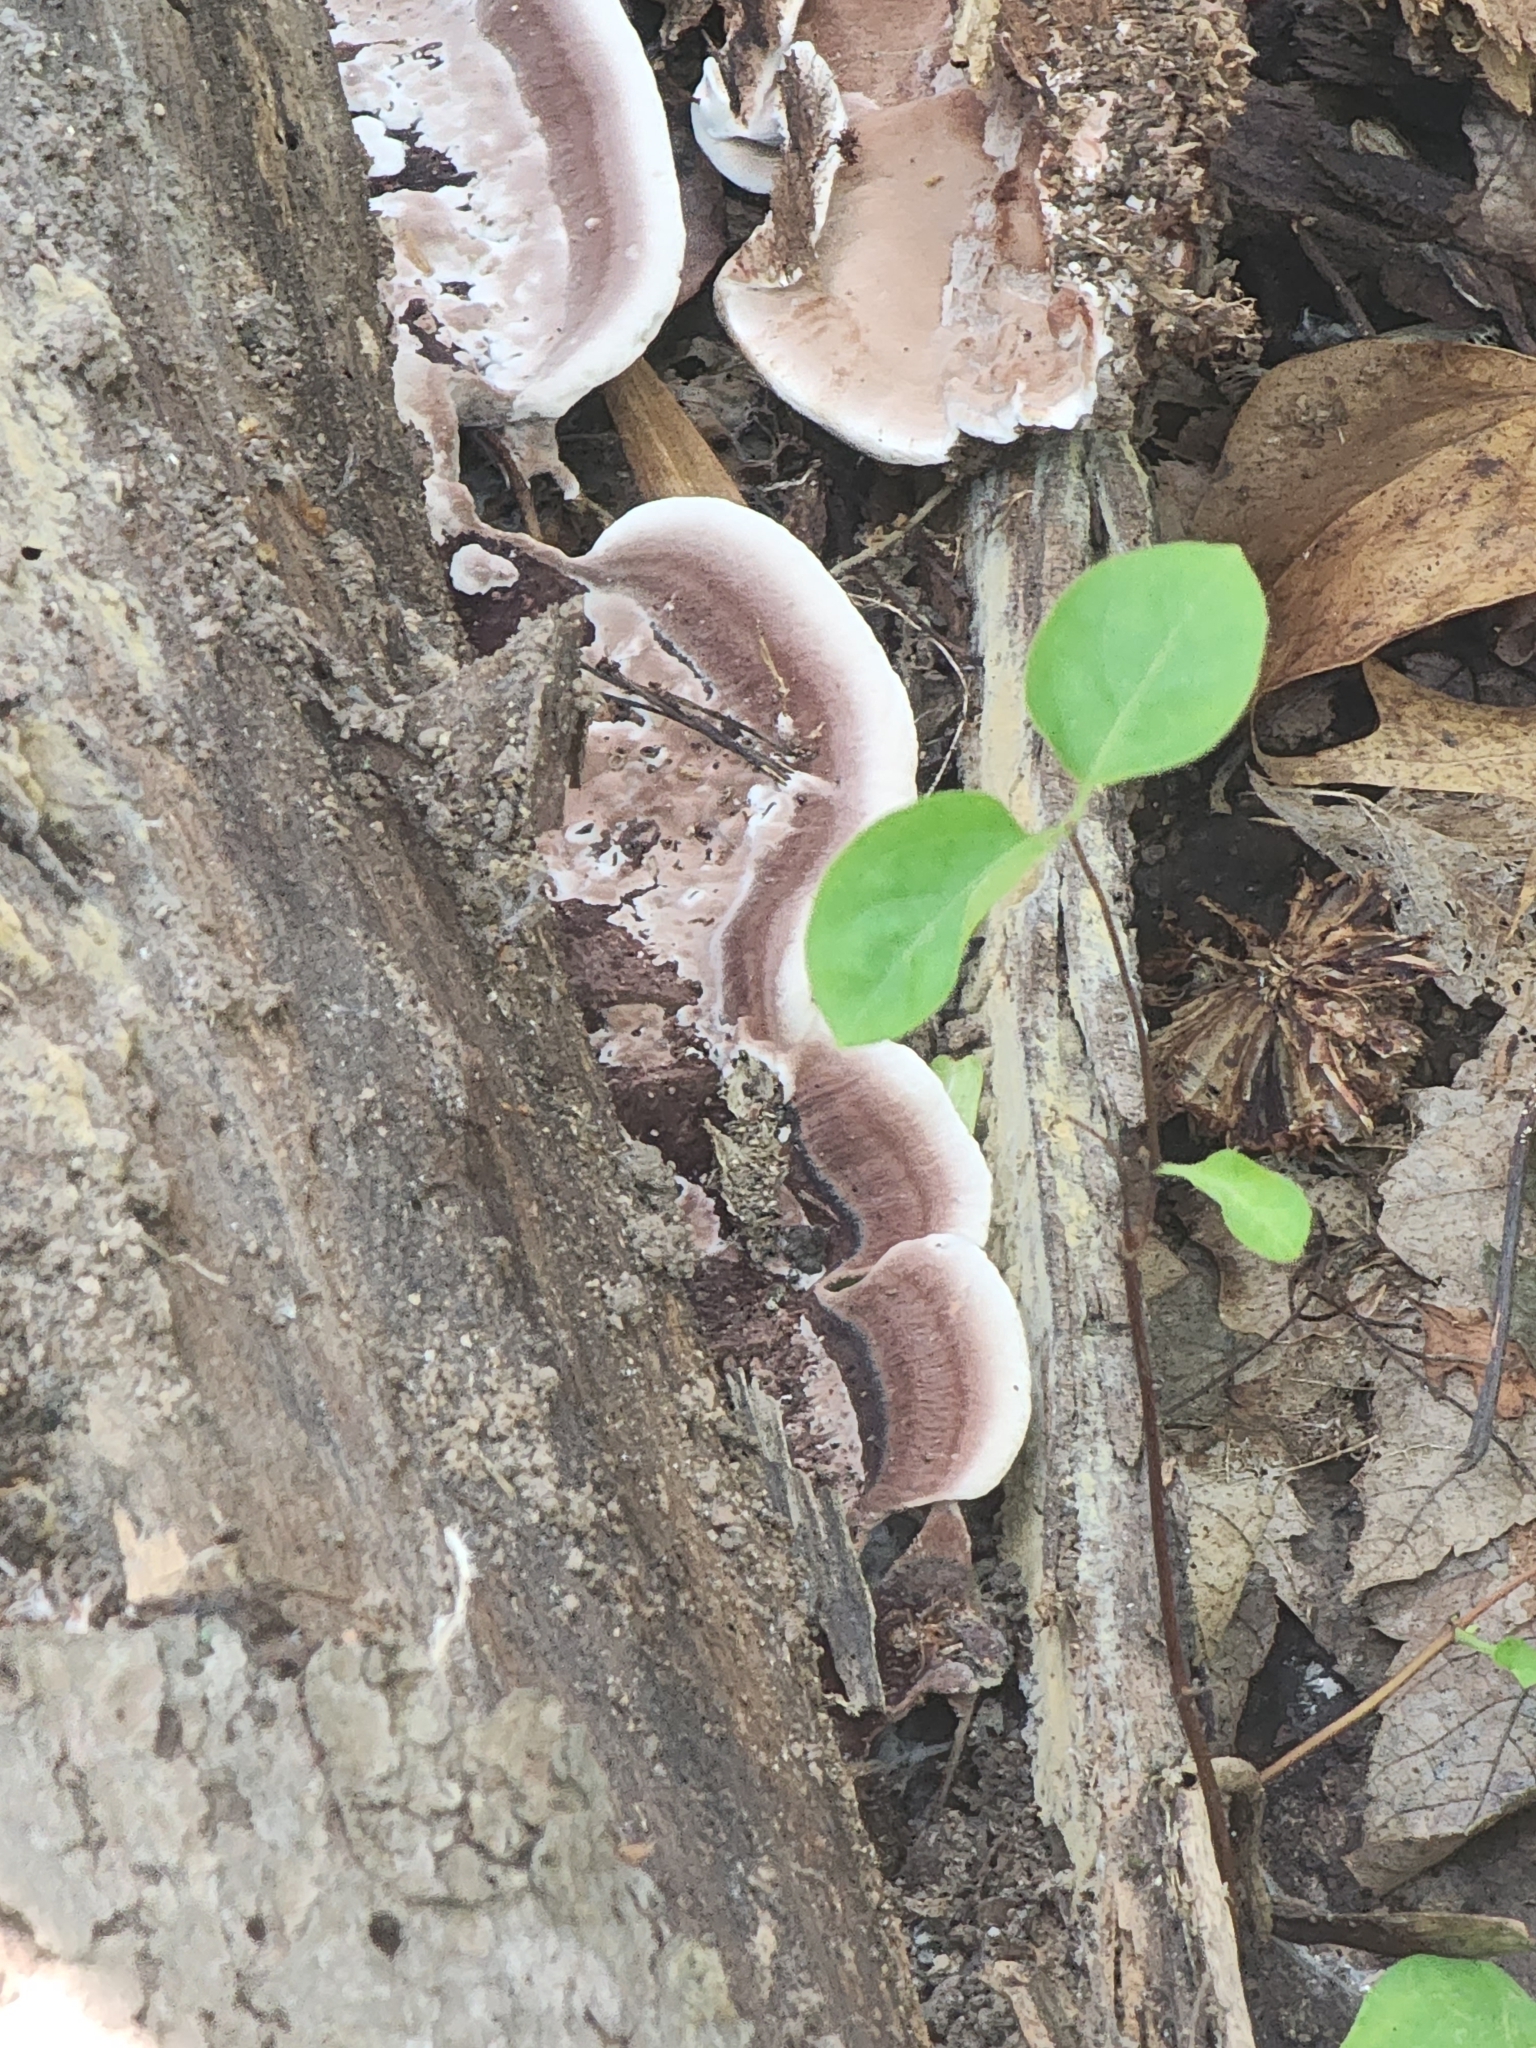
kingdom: Fungi
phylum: Basidiomycota
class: Agaricomycetes
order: Polyporales
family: Steccherinaceae
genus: Nigroporus
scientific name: Nigroporus vinosus
